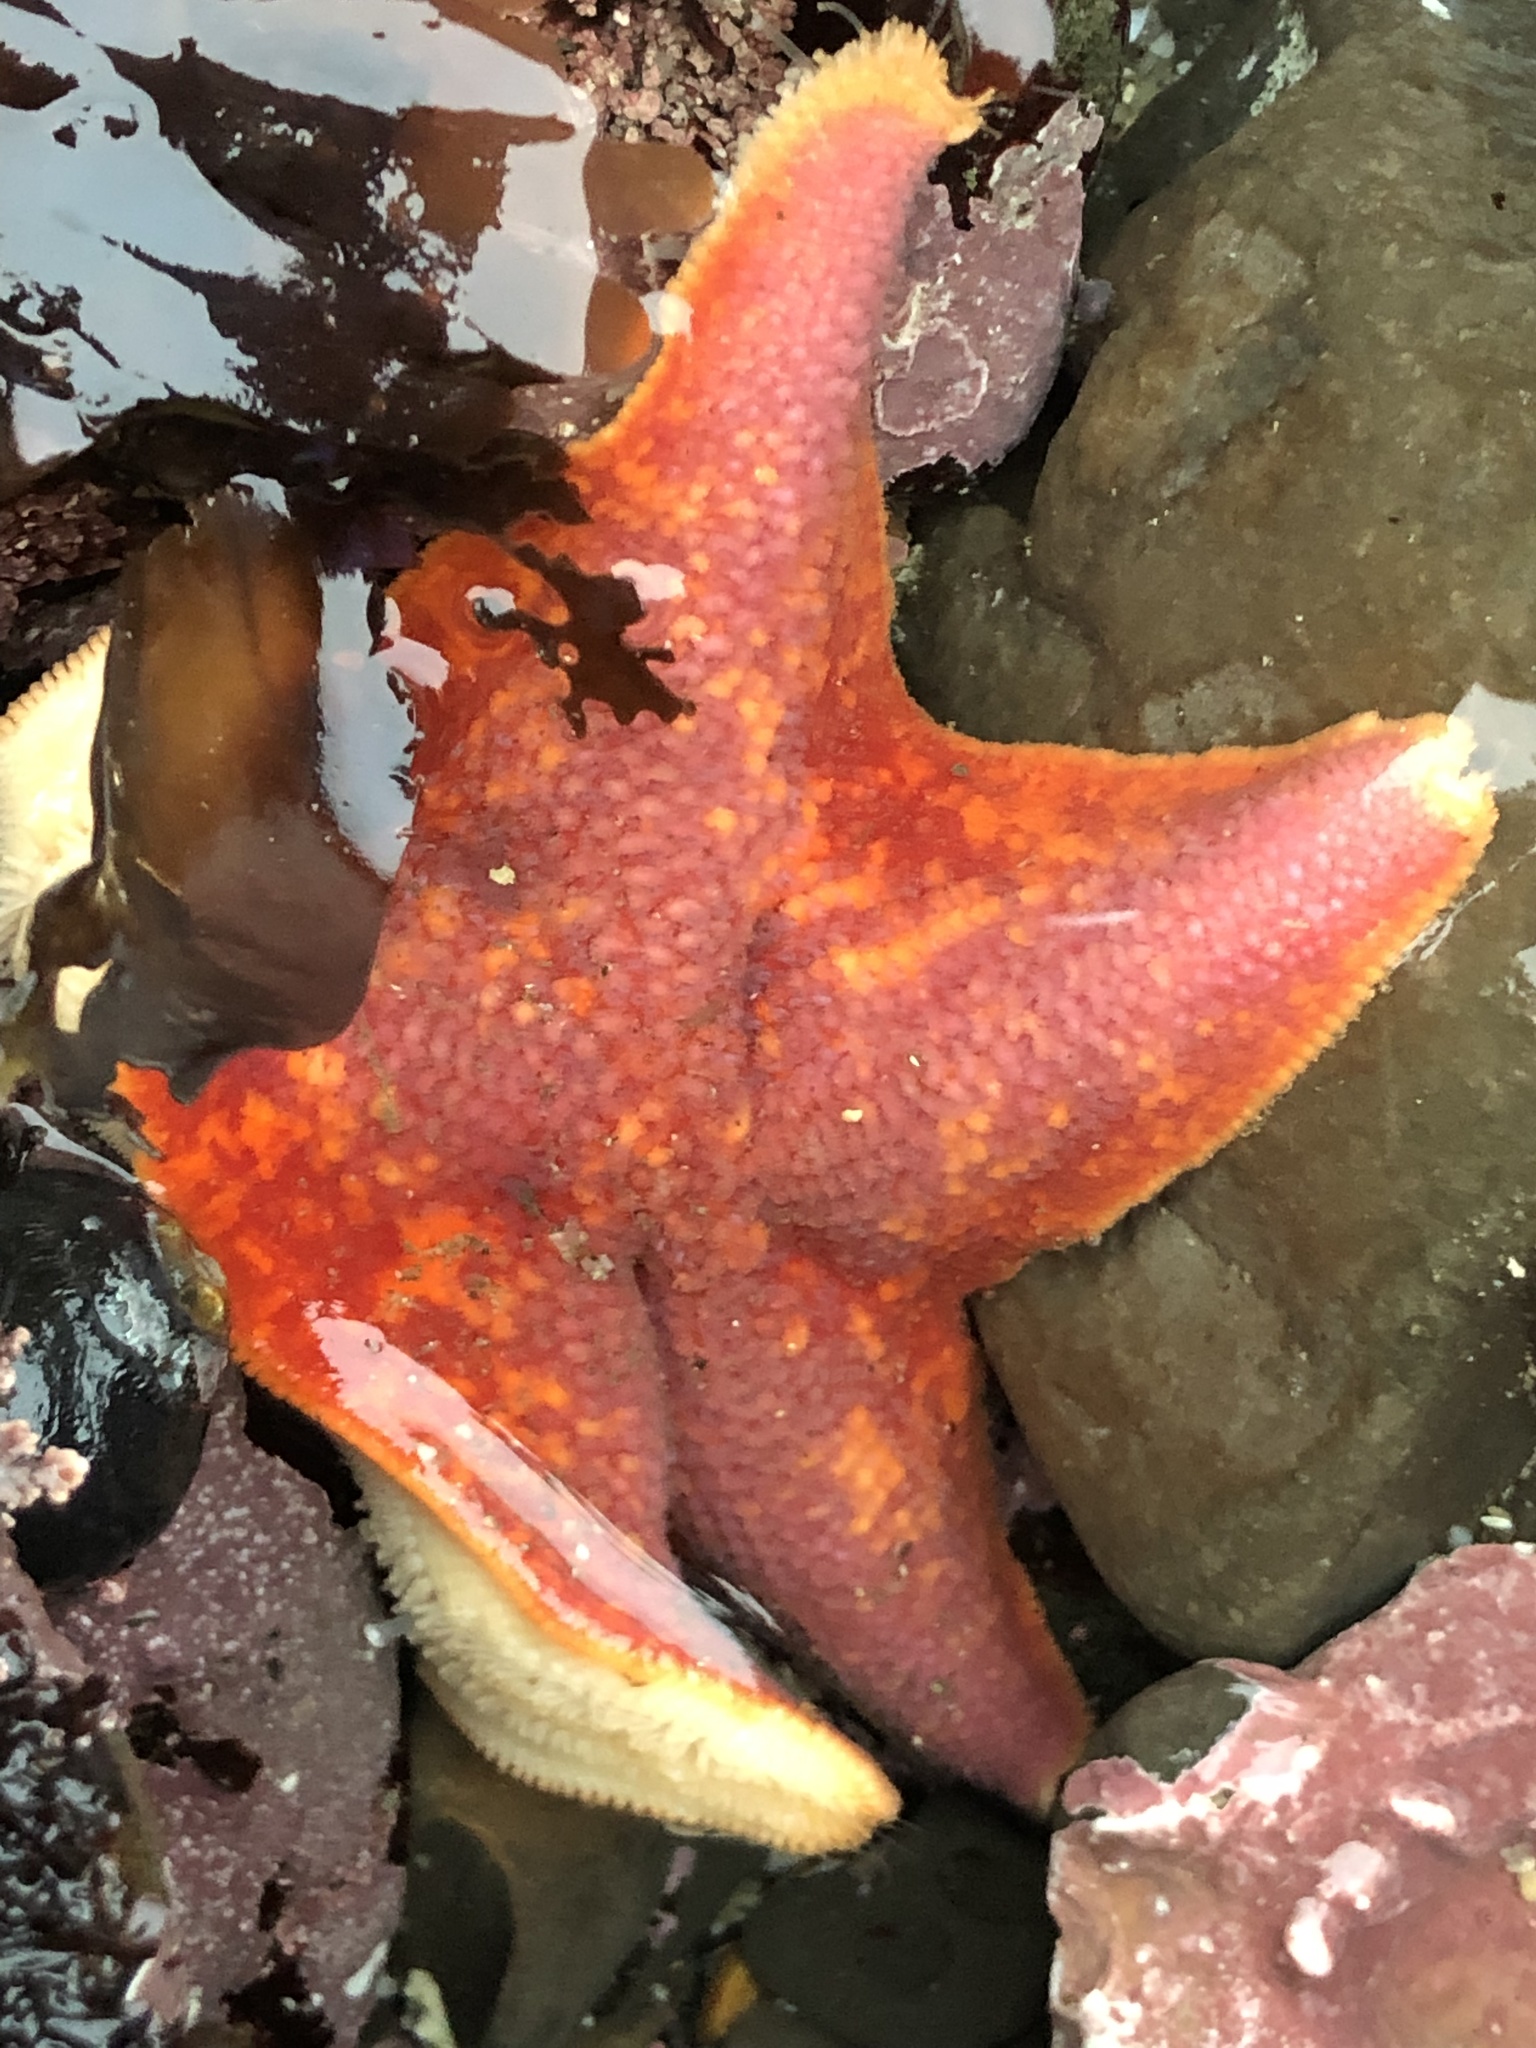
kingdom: Animalia
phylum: Echinodermata
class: Asteroidea
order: Valvatida
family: Asterinidae
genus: Patiria
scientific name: Patiria miniata
